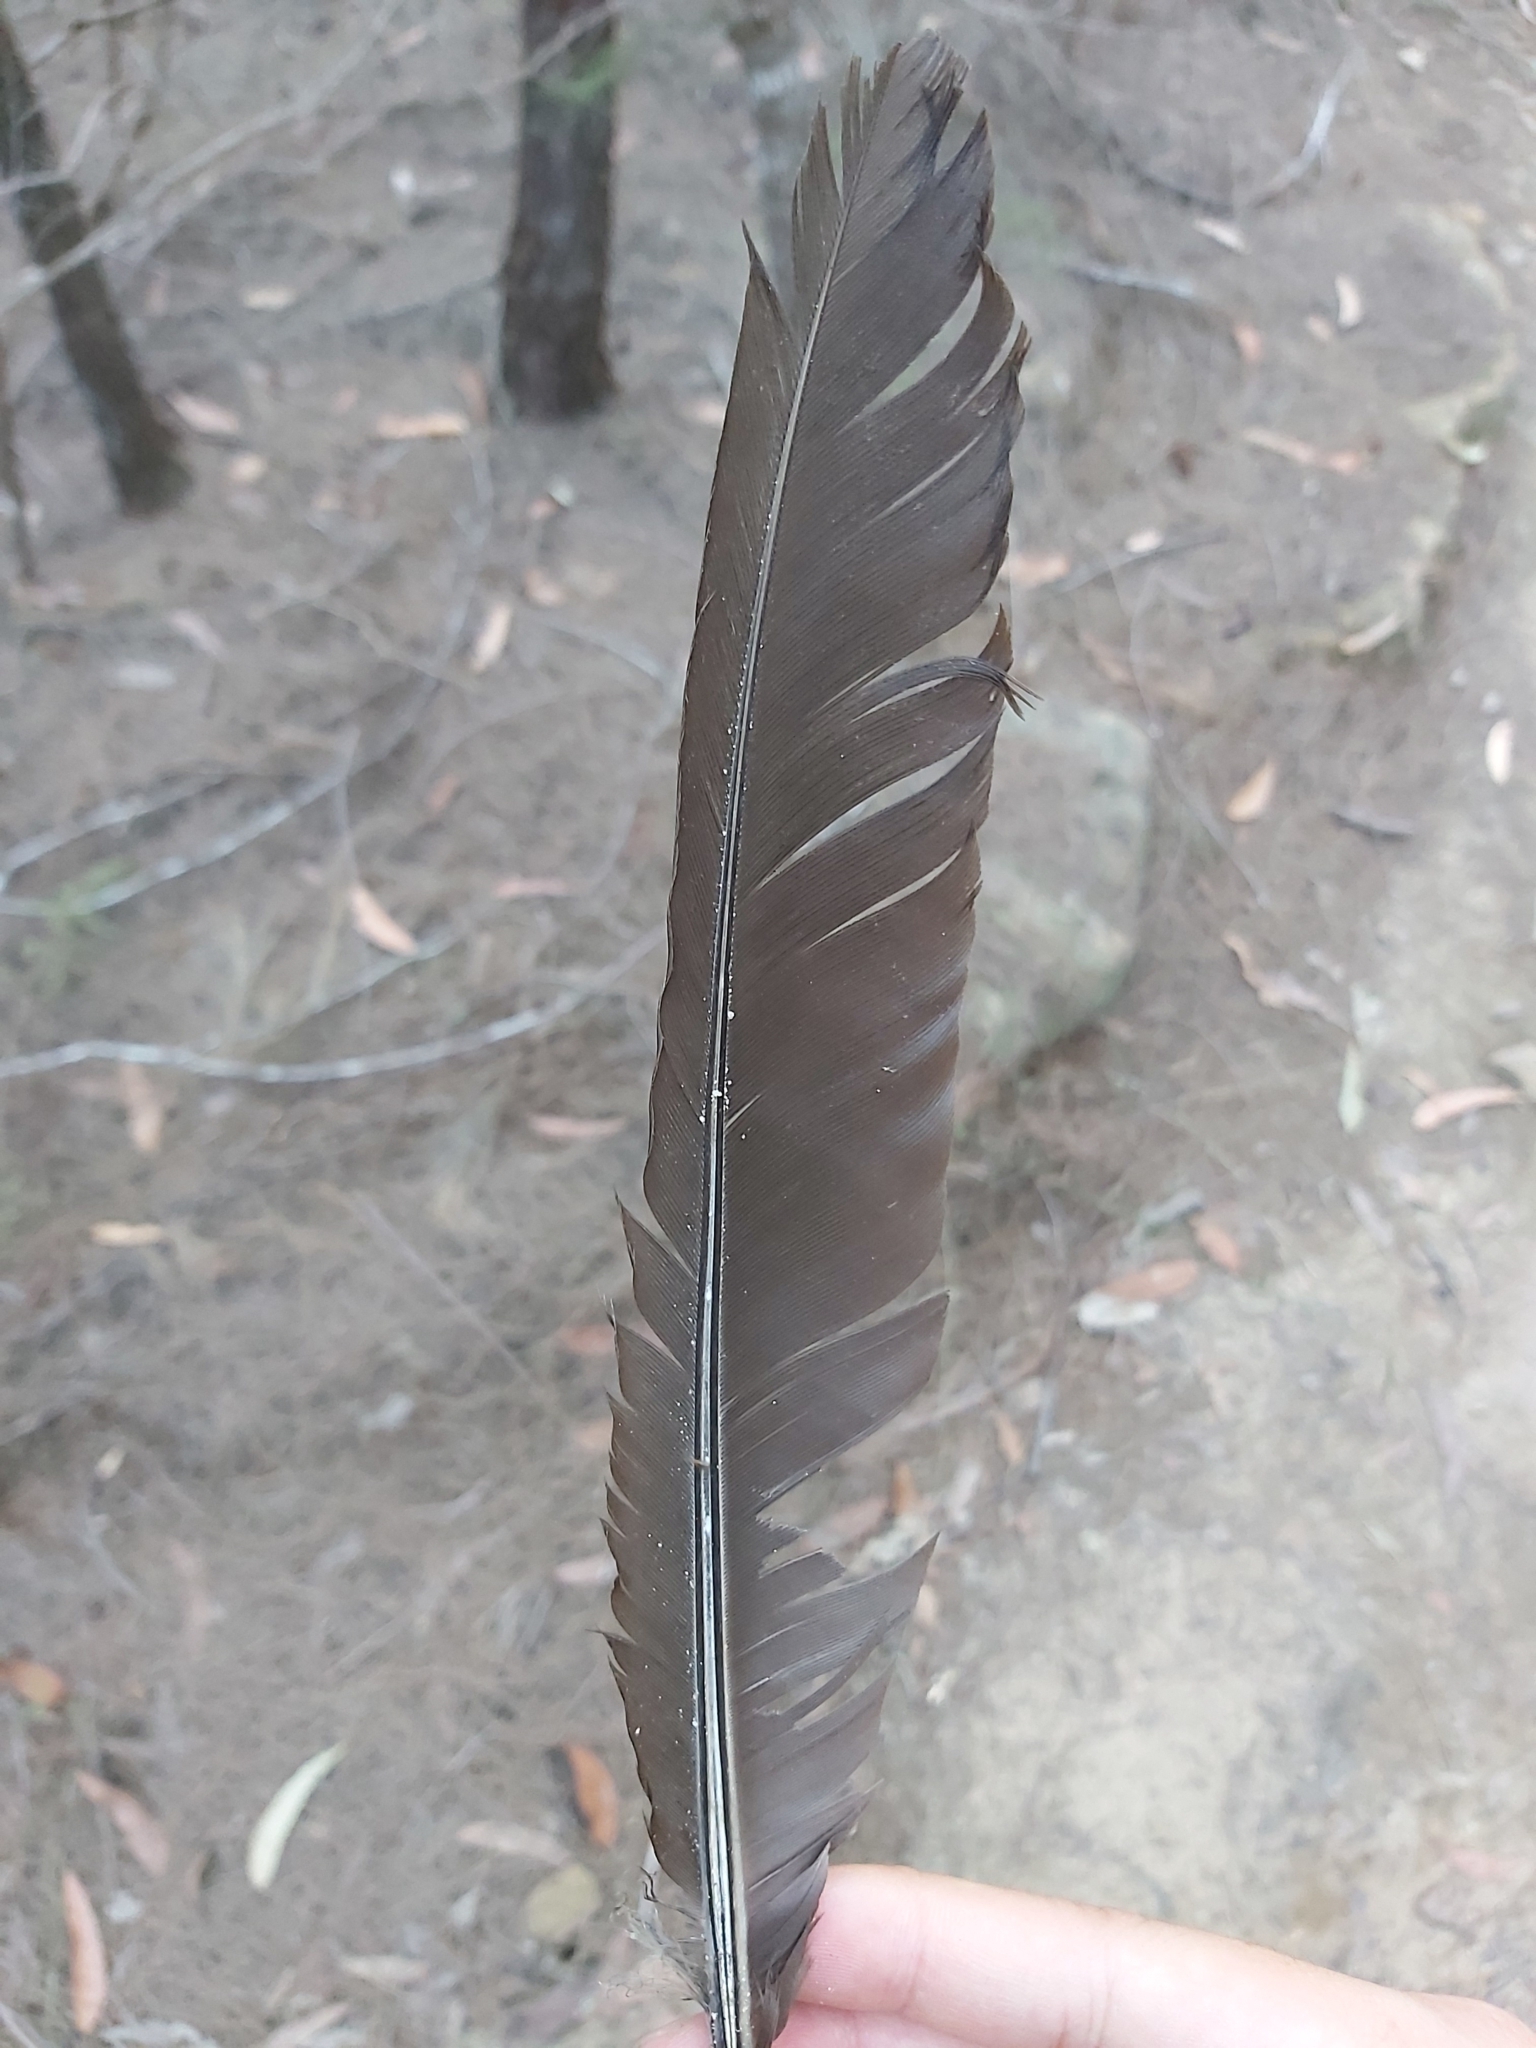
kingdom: Animalia
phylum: Chordata
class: Aves
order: Galliformes
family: Megapodiidae
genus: Alectura
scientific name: Alectura lathami
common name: Australian brushturkey
